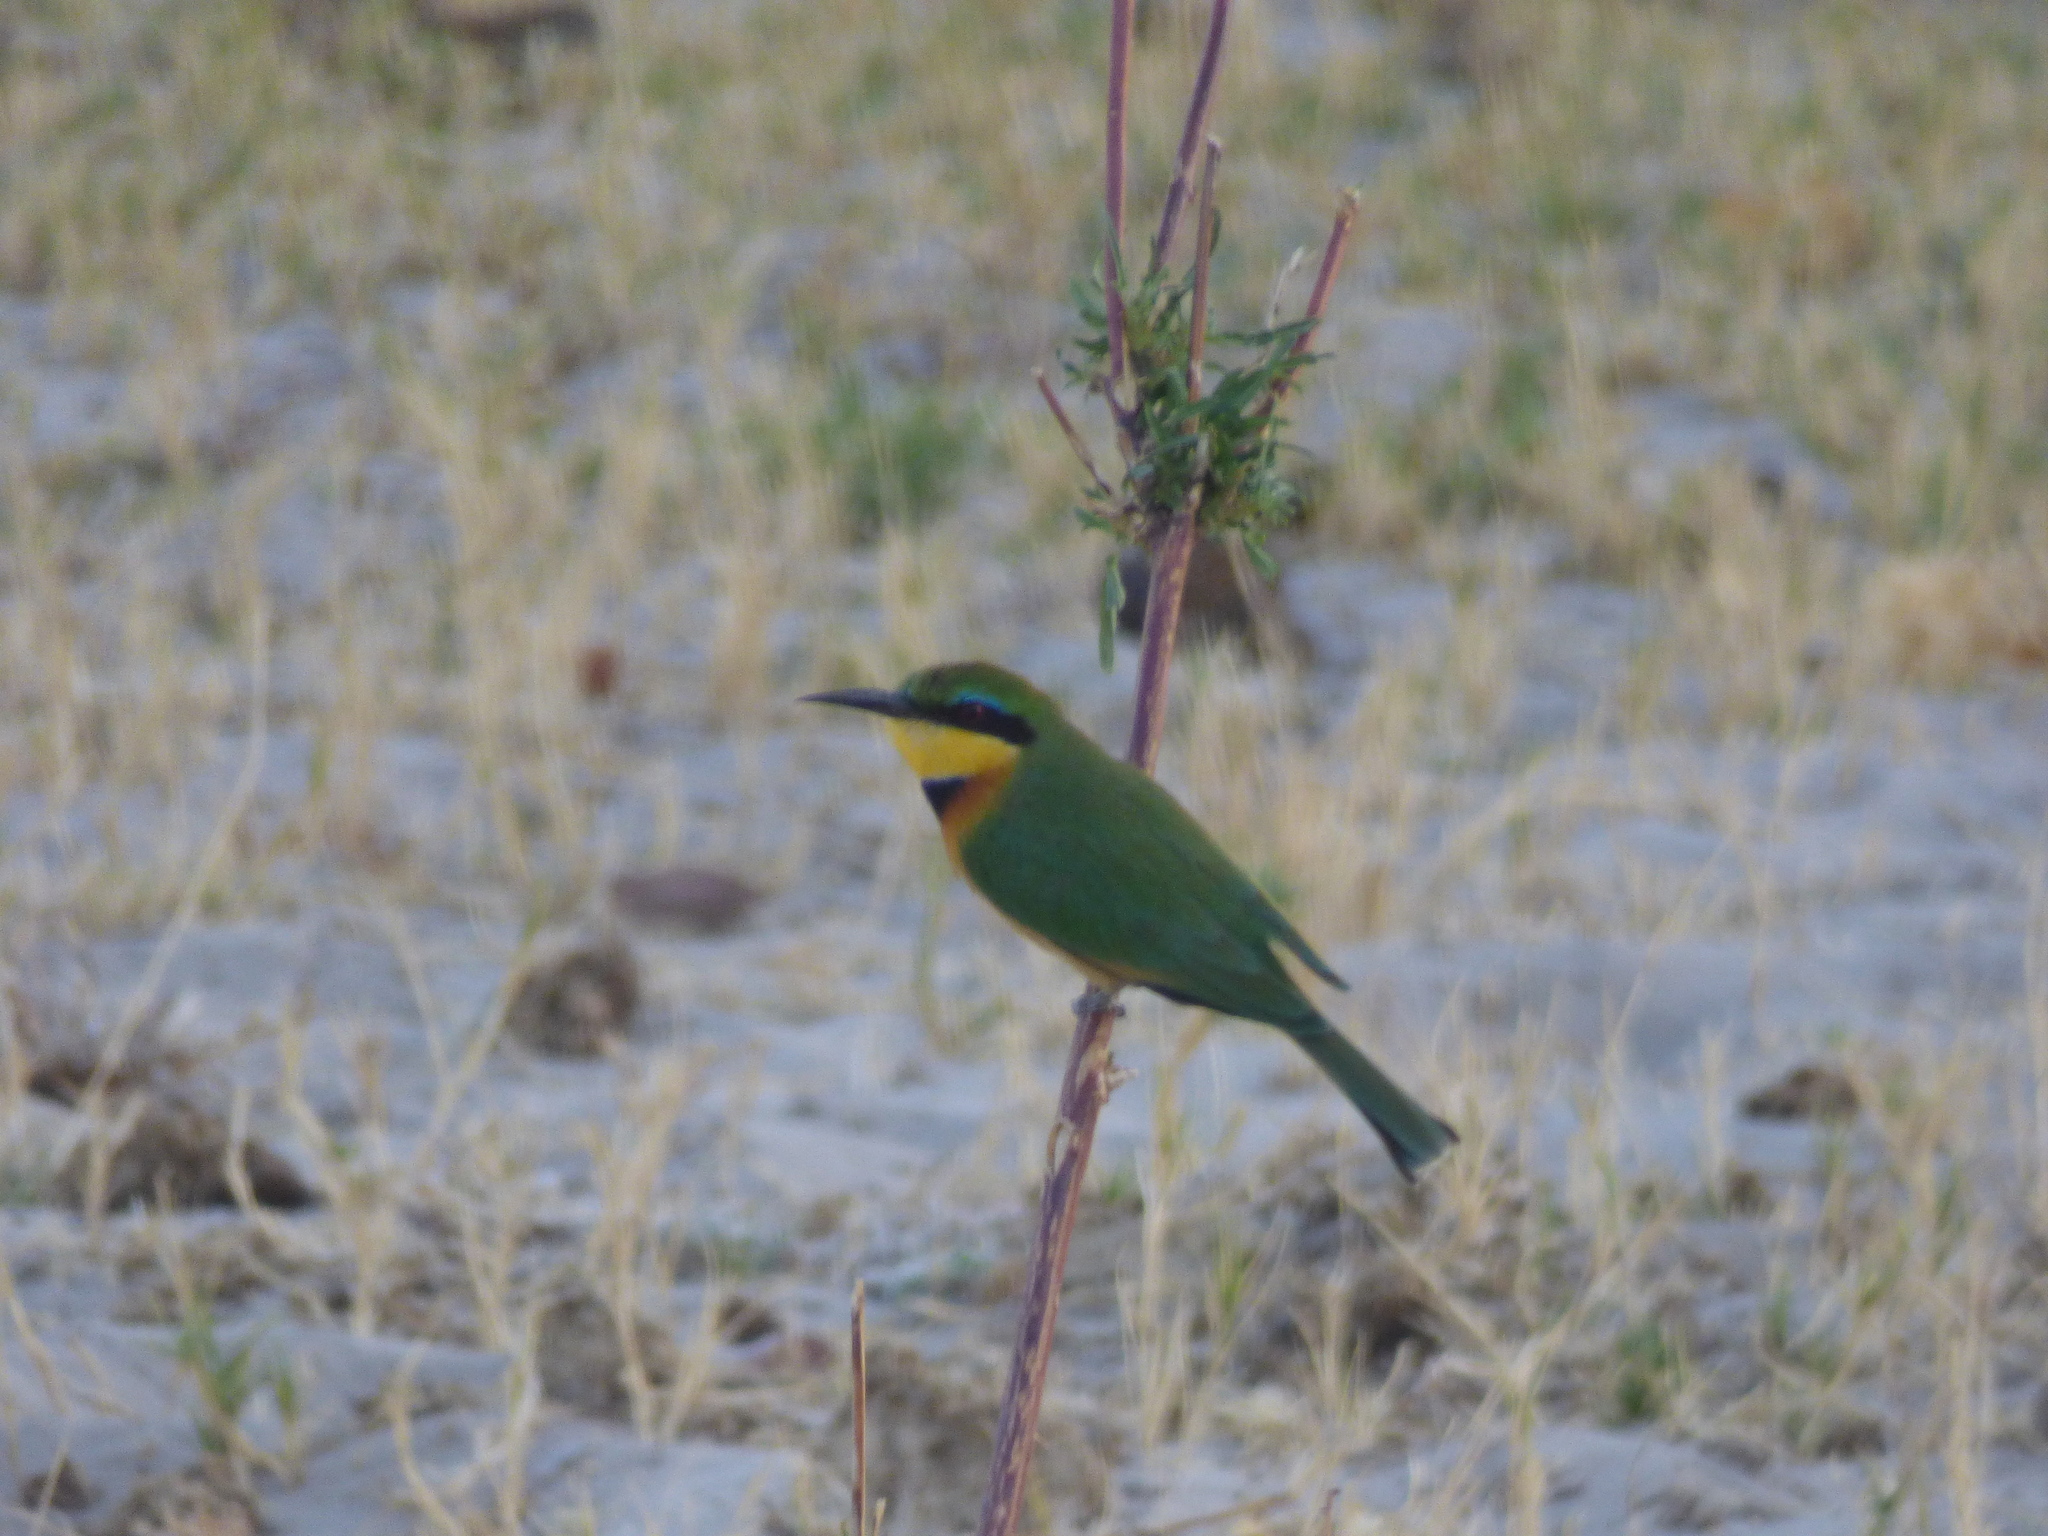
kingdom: Animalia
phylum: Chordata
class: Aves
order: Coraciiformes
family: Meropidae
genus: Merops
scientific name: Merops pusillus
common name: Little bee-eater
